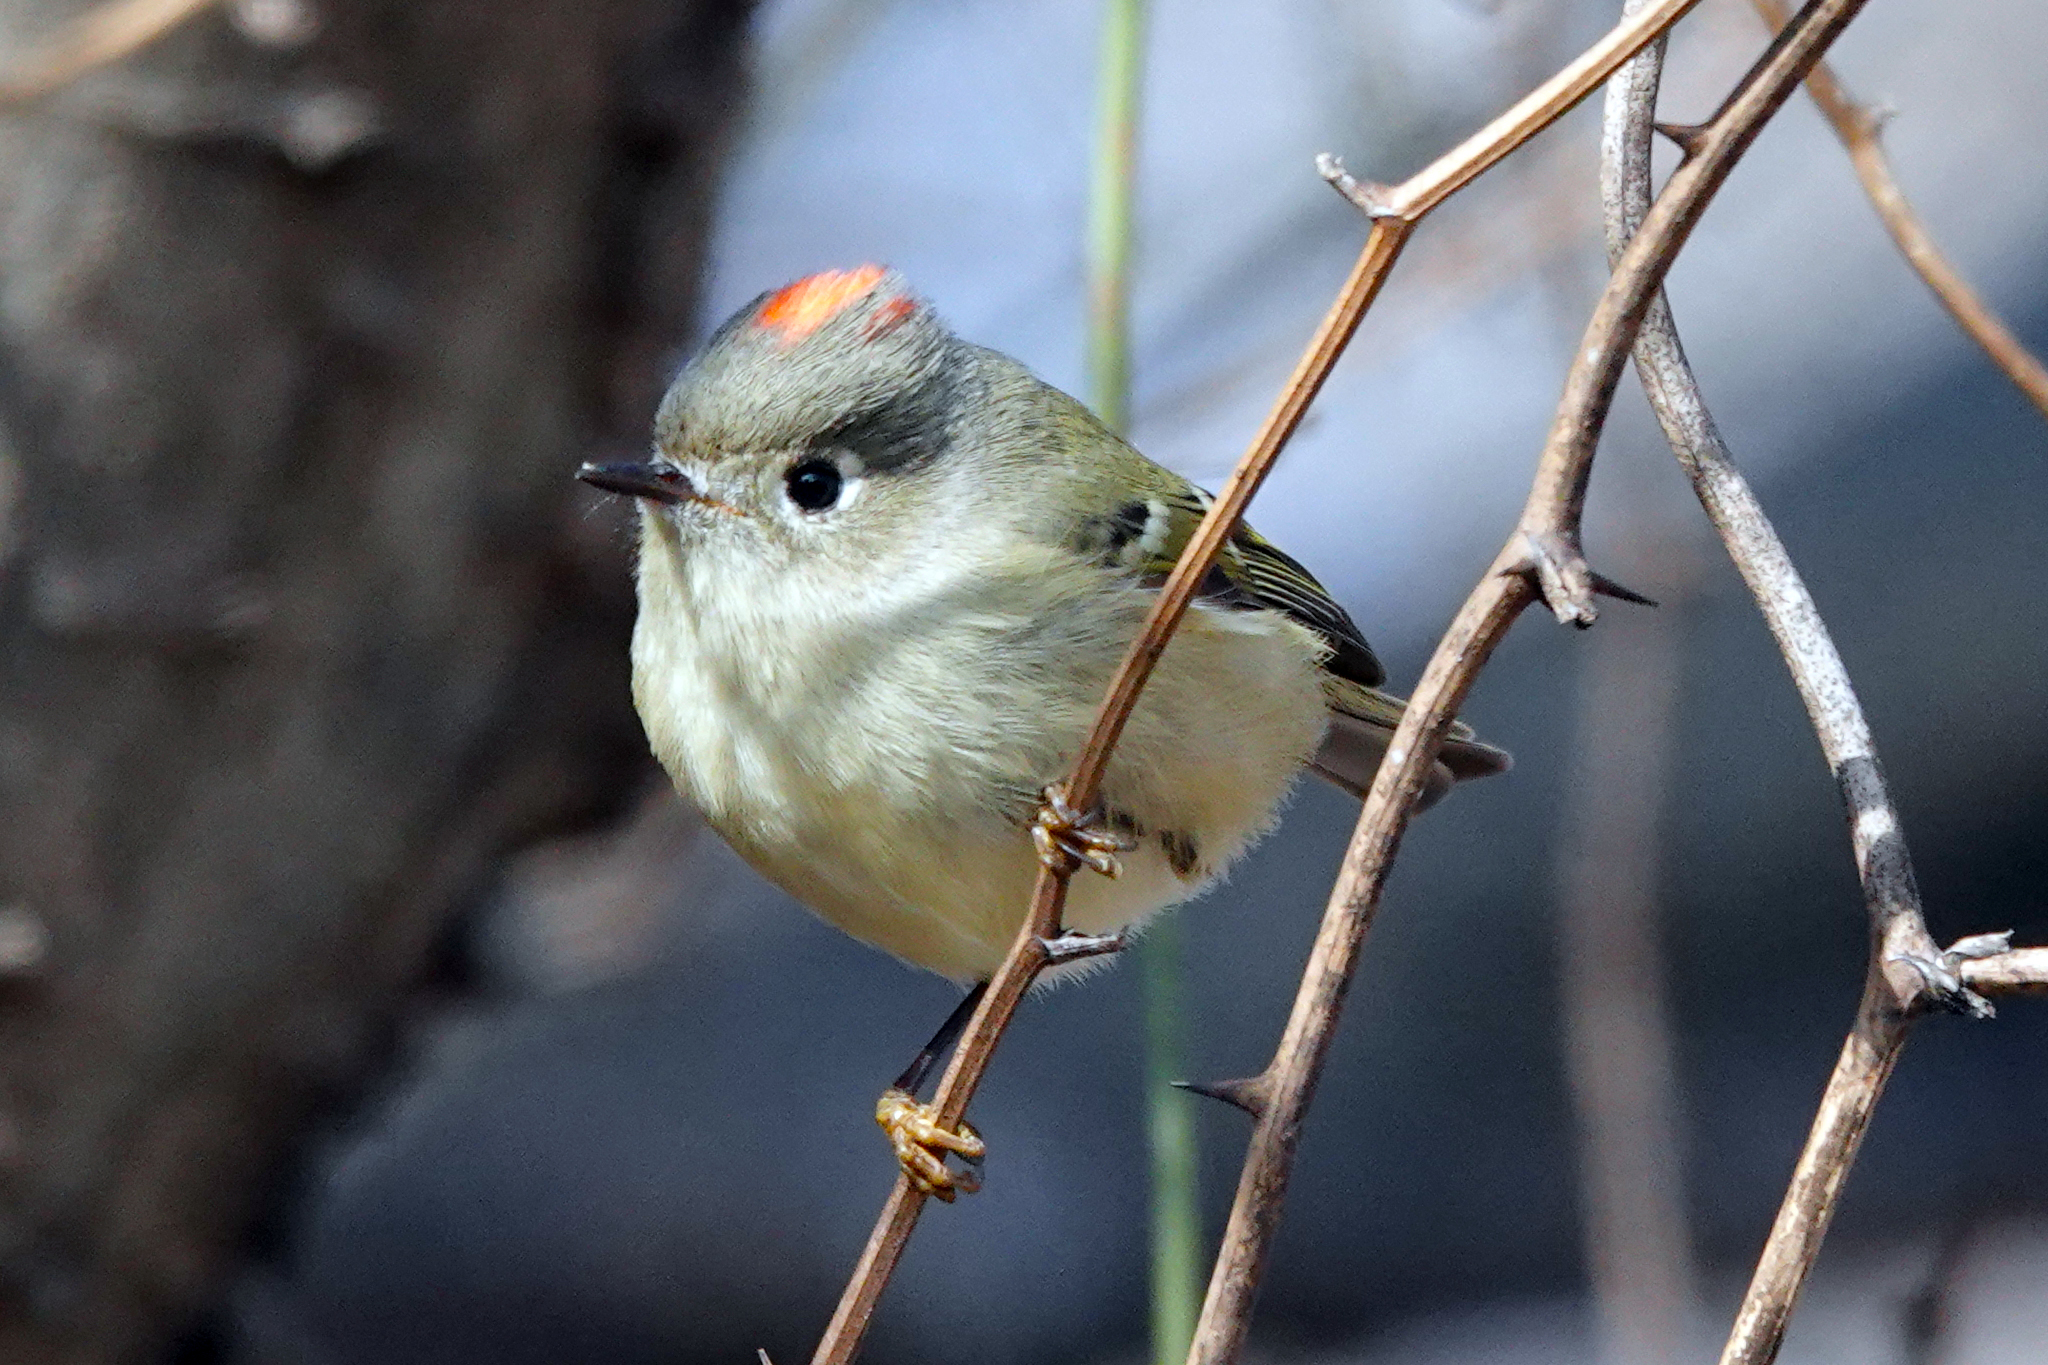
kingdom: Animalia
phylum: Chordata
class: Aves
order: Passeriformes
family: Regulidae
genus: Regulus
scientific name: Regulus calendula
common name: Ruby-crowned kinglet
